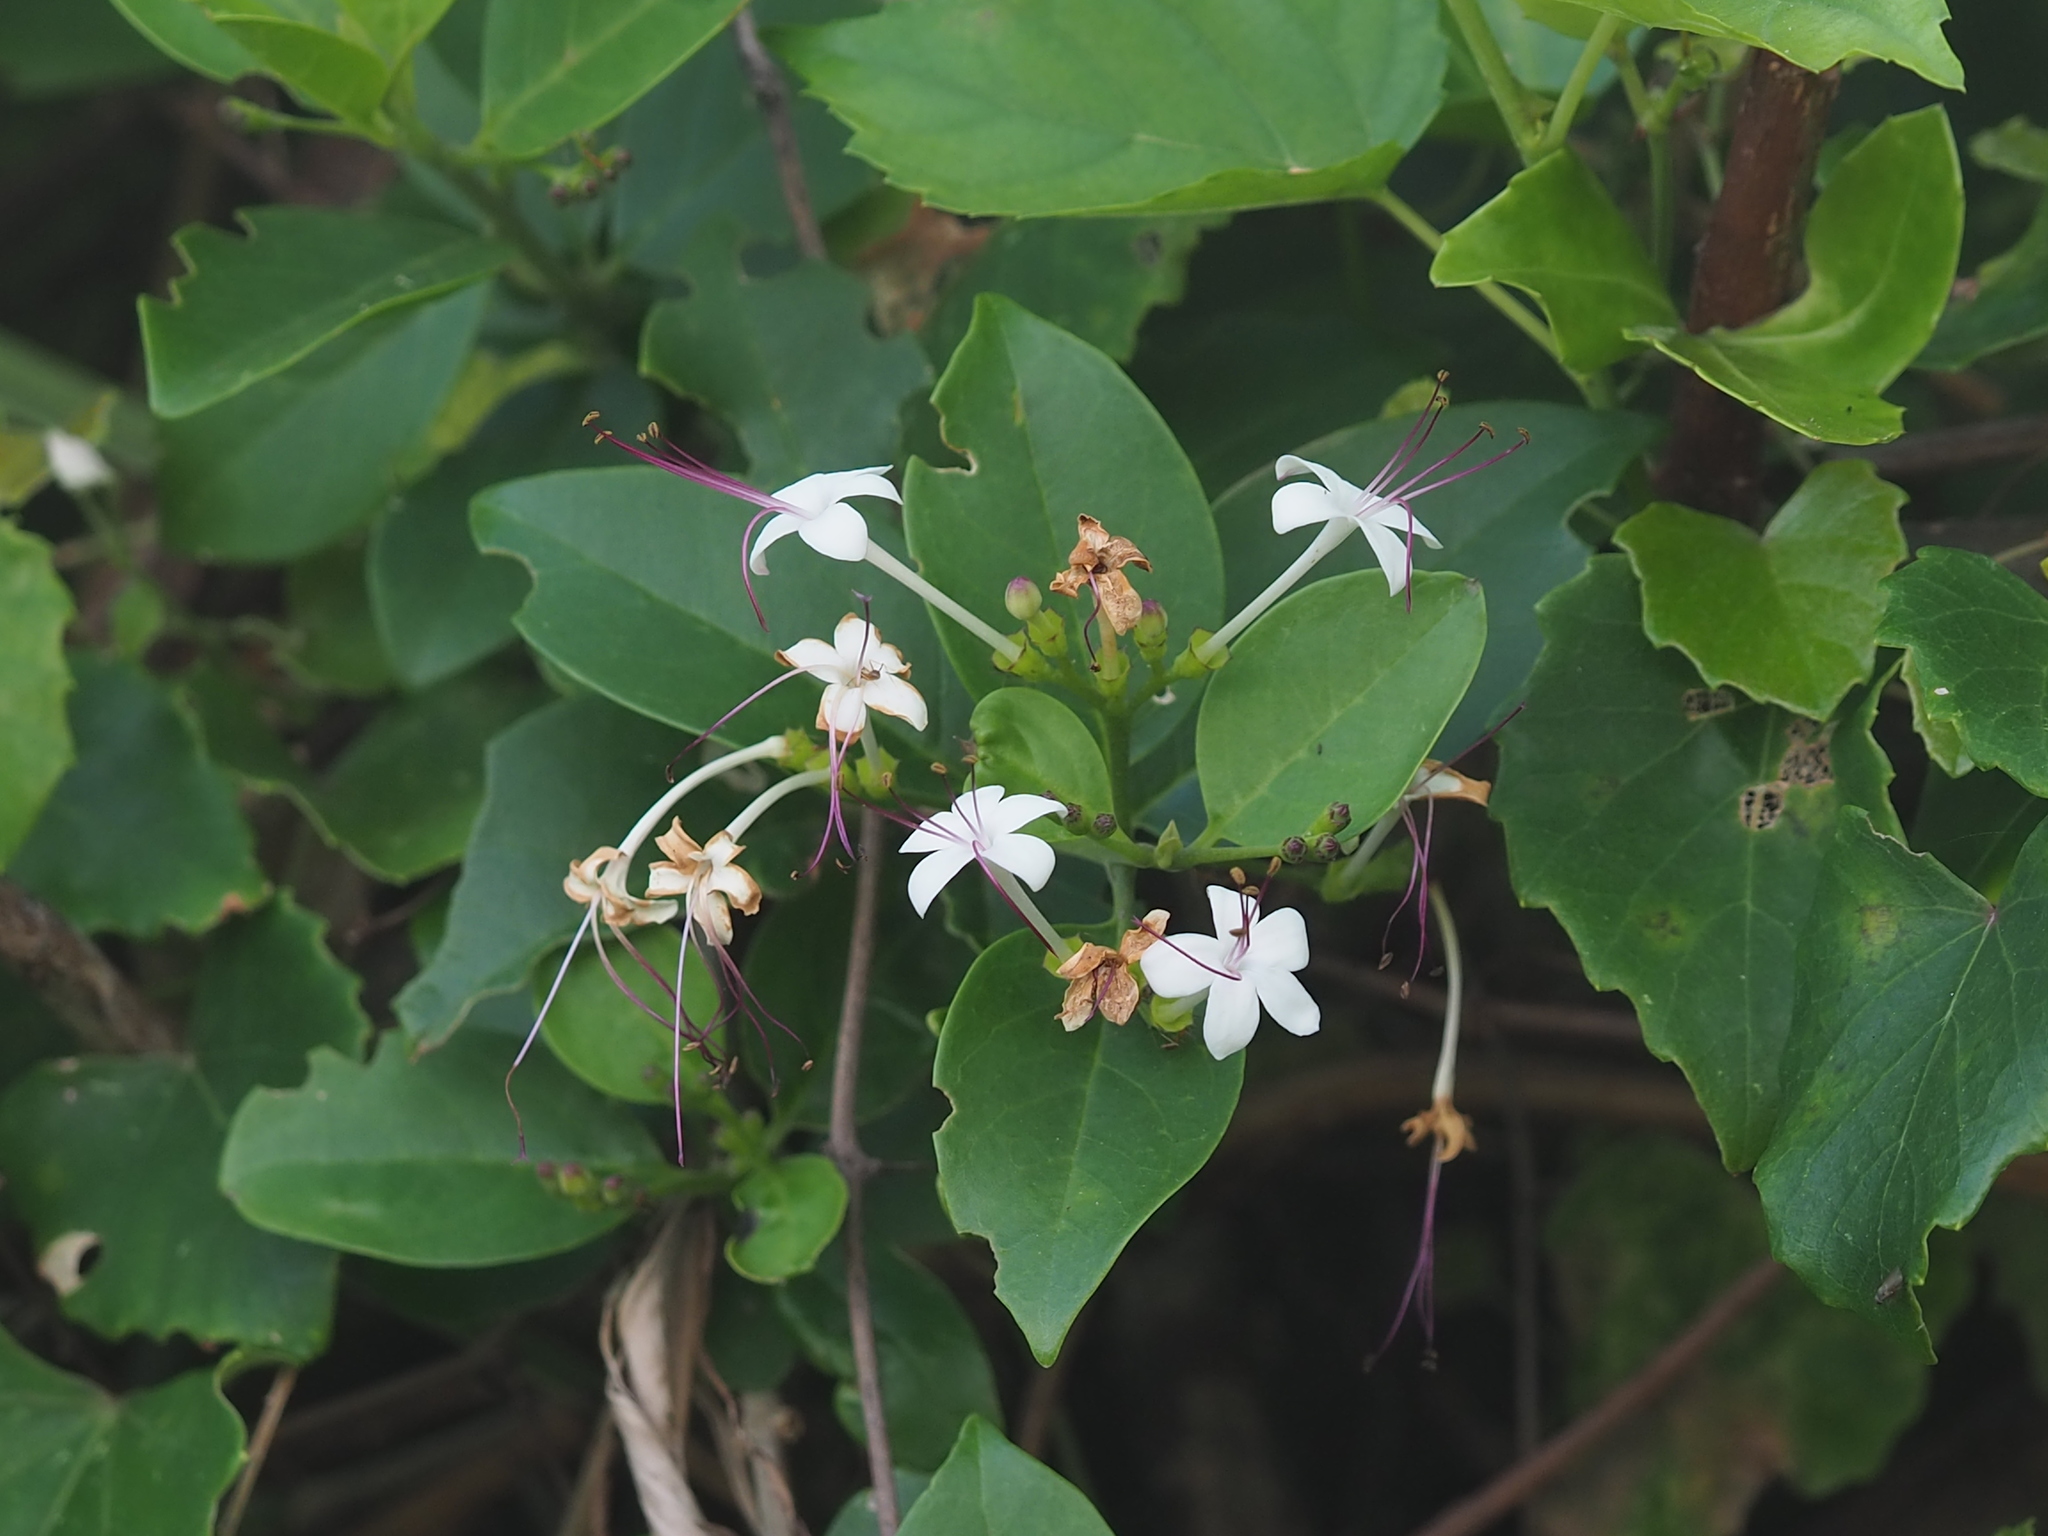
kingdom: Plantae
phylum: Tracheophyta
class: Magnoliopsida
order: Lamiales
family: Lamiaceae
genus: Volkameria
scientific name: Volkameria inermis
